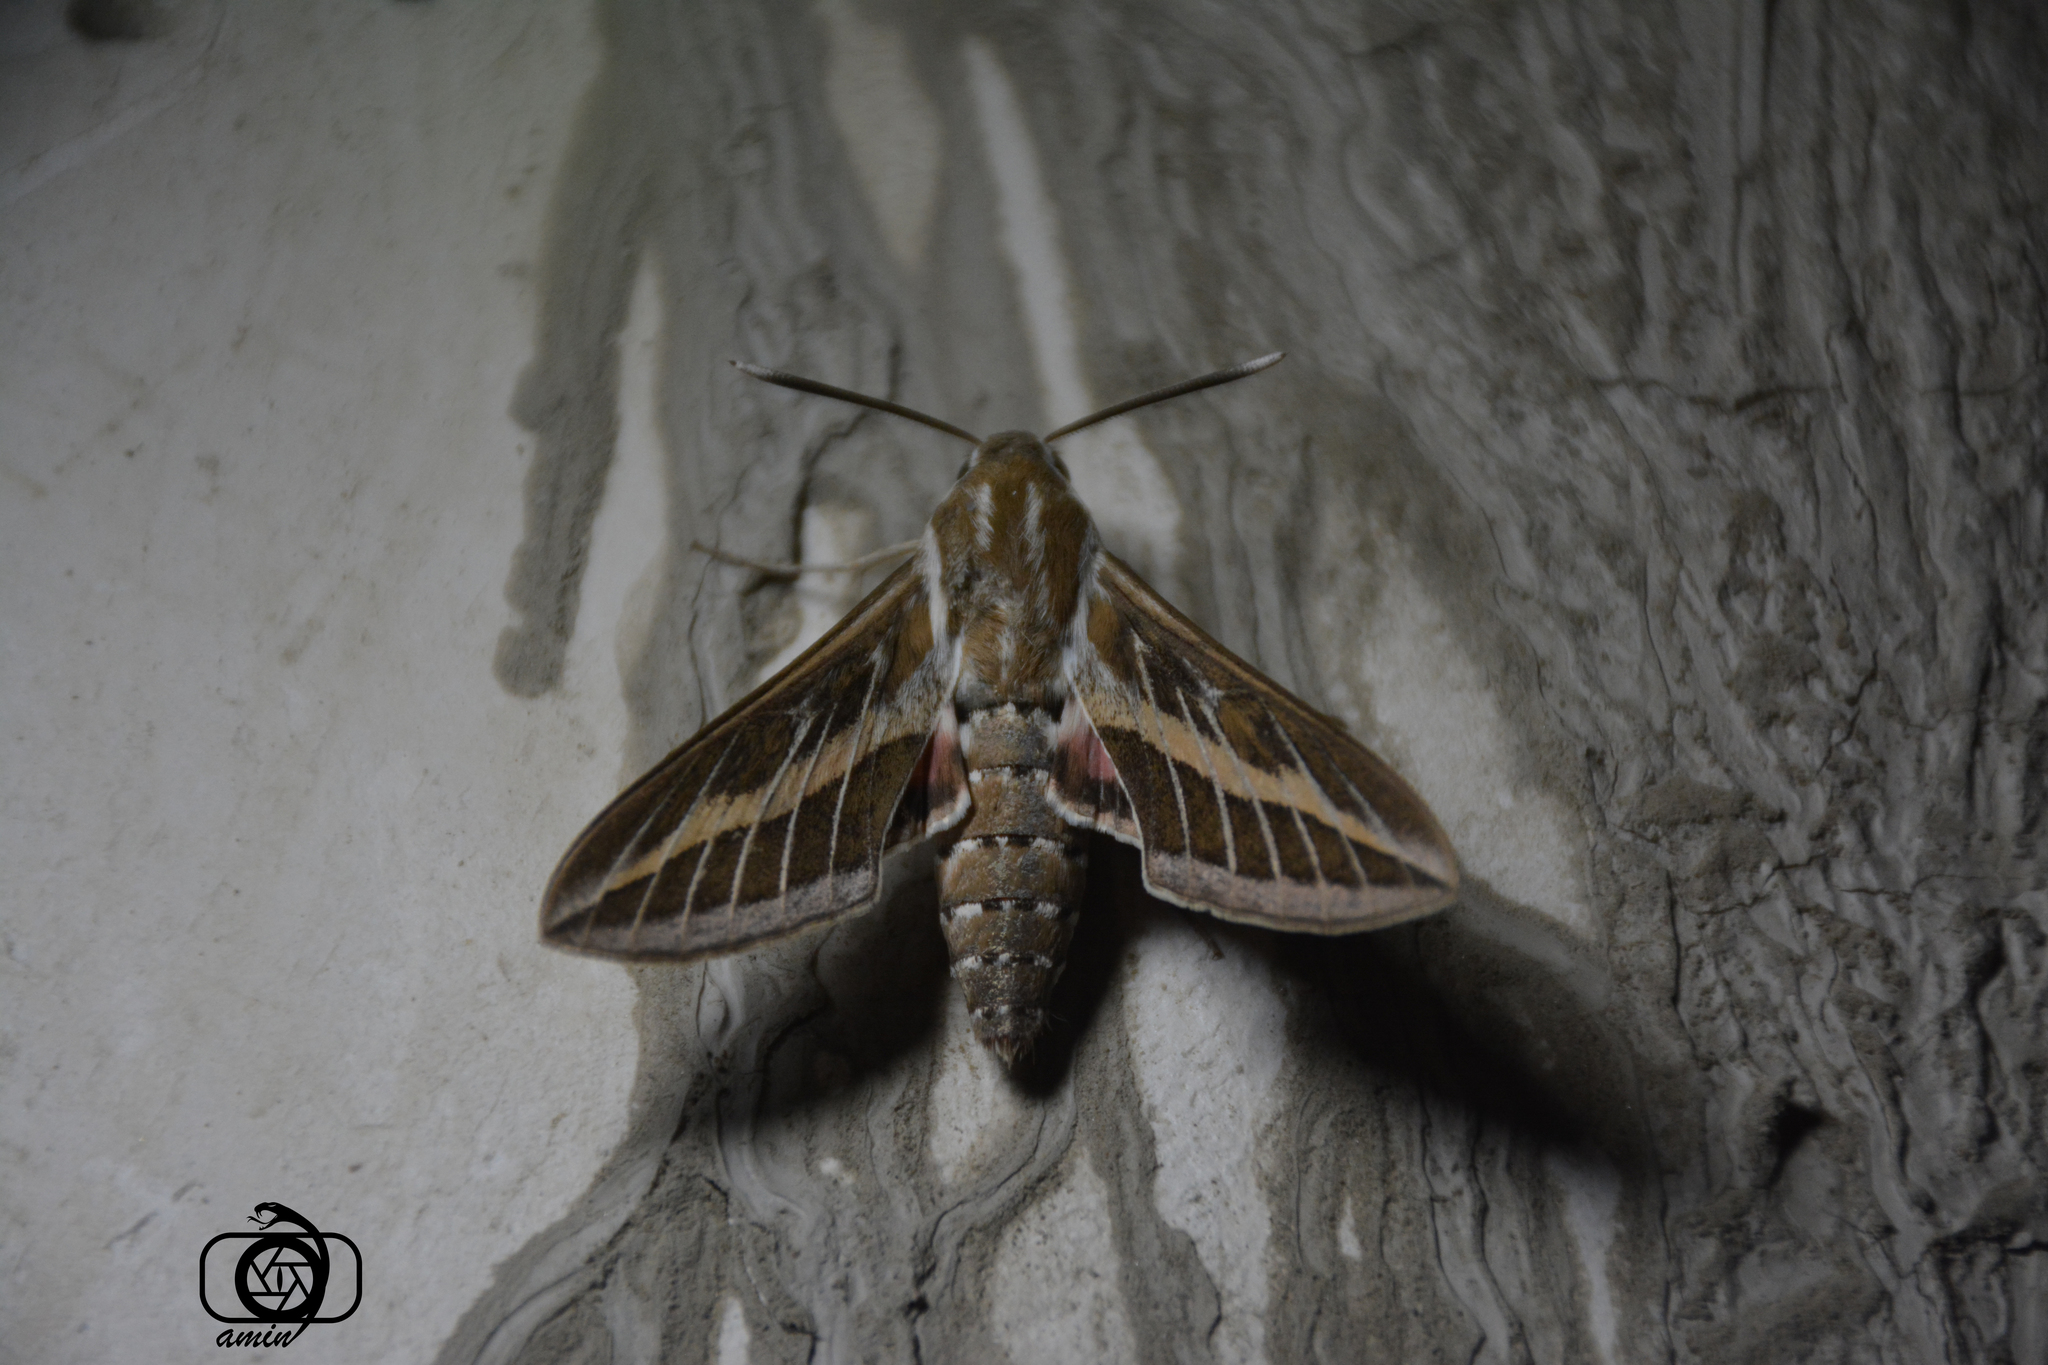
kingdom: Animalia
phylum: Arthropoda
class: Insecta
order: Lepidoptera
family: Sphingidae
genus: Hyles
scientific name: Hyles livornica
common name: Striped hawk-moth
